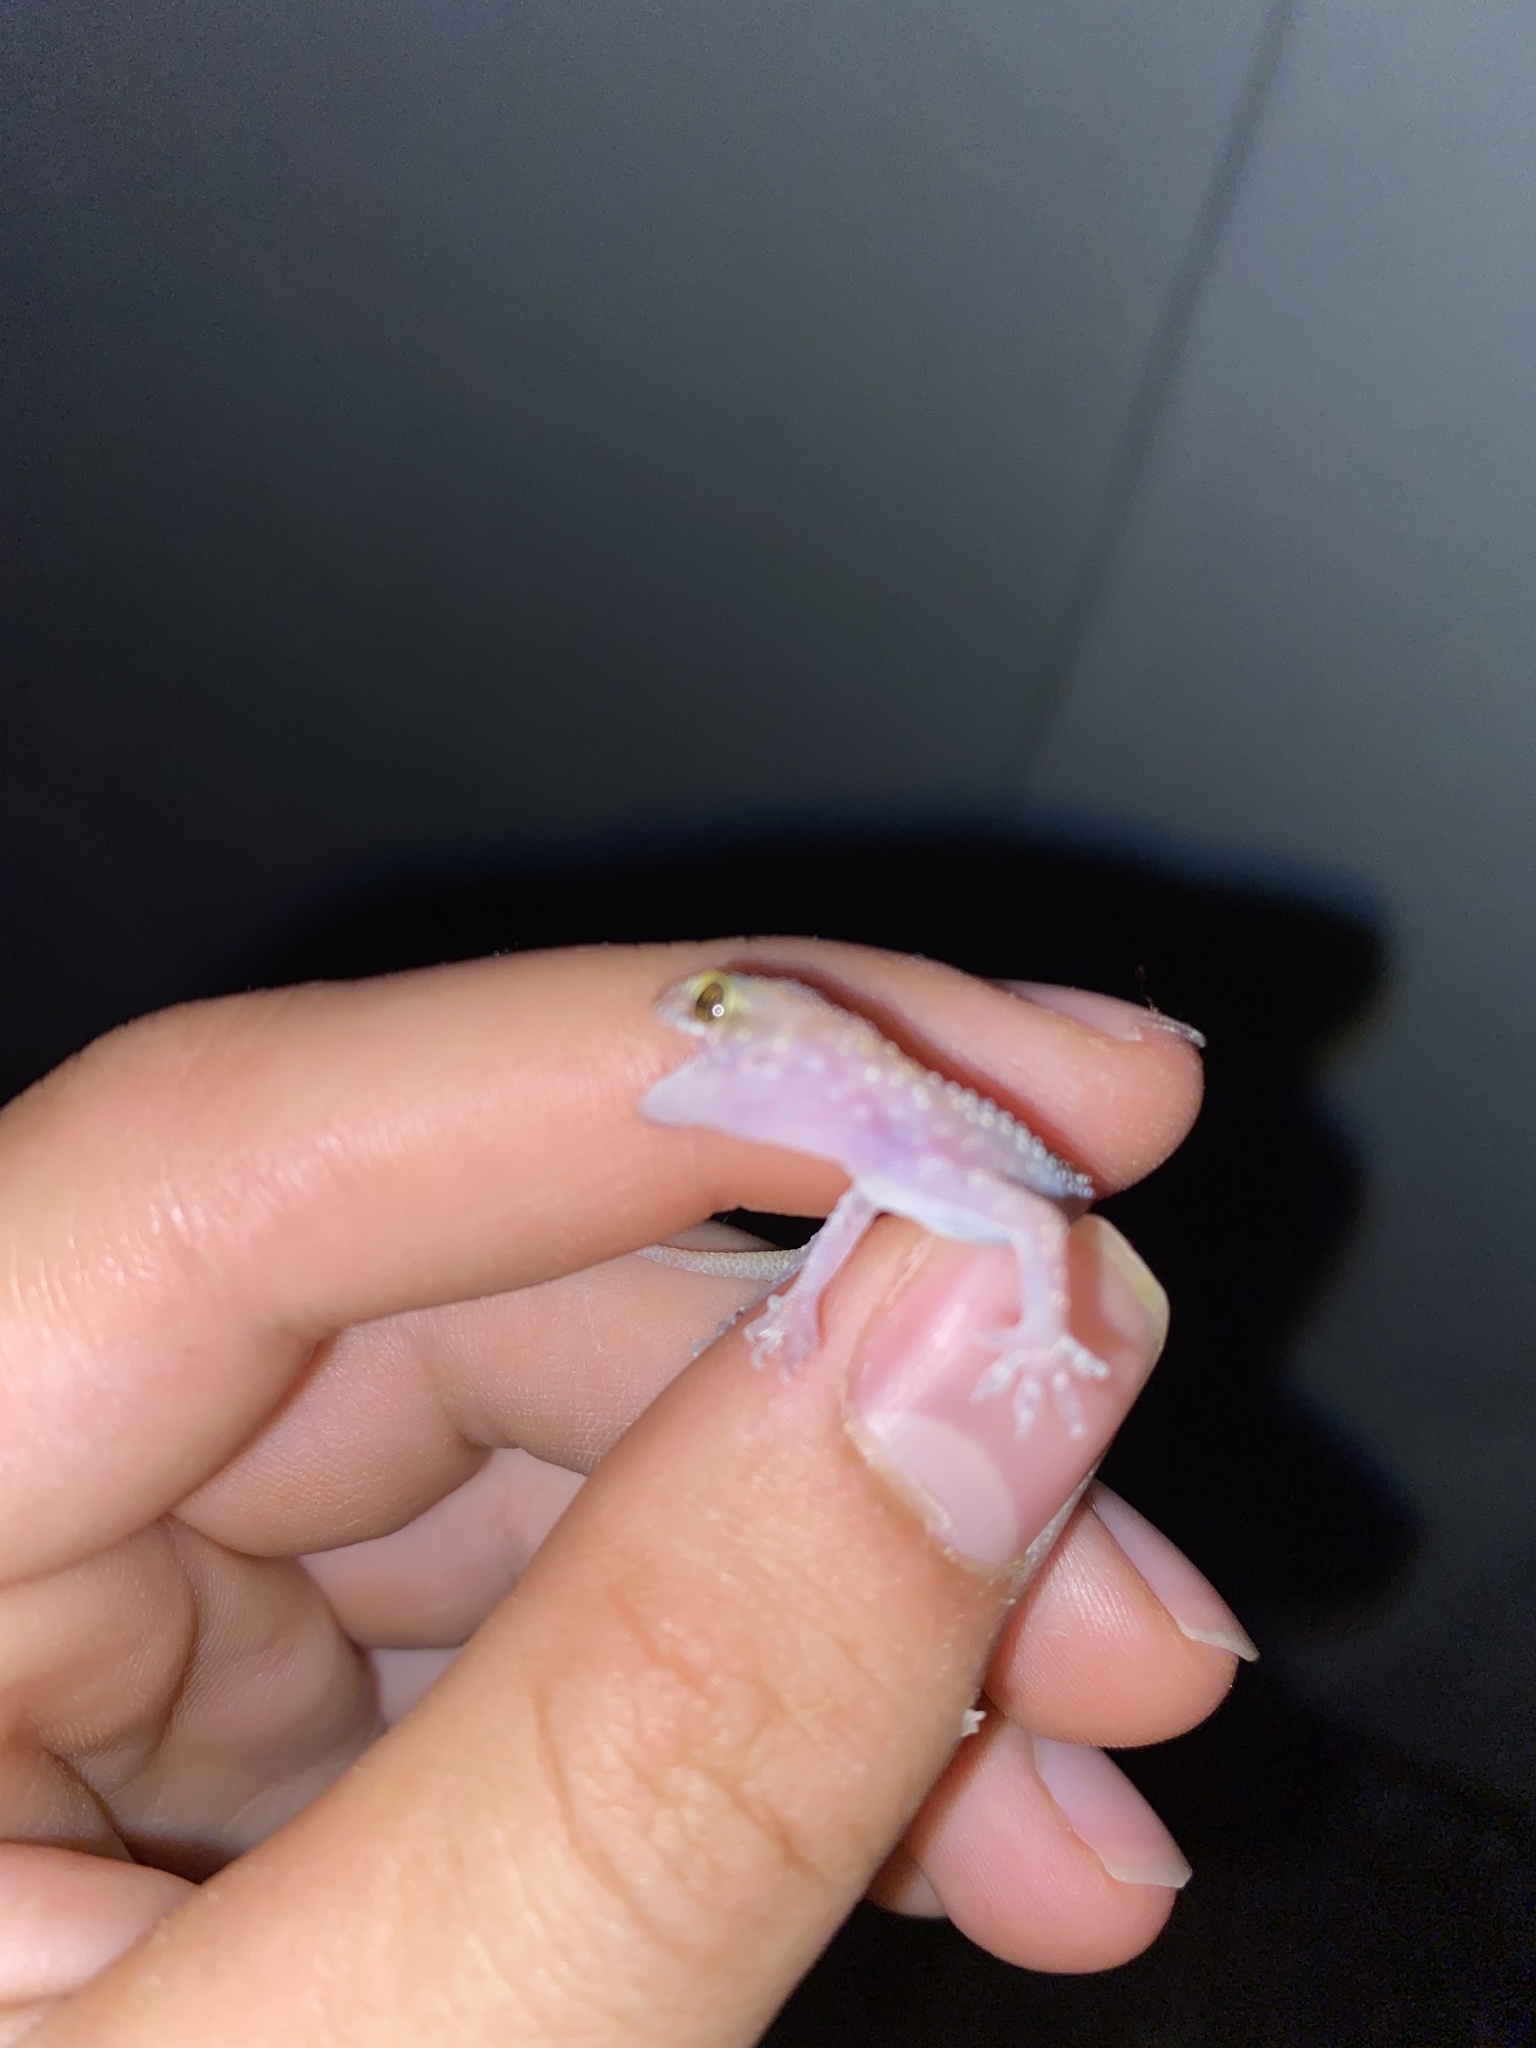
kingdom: Animalia
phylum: Chordata
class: Squamata
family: Gekkonidae
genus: Hemidactylus
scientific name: Hemidactylus turcicus
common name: Turkish gecko
